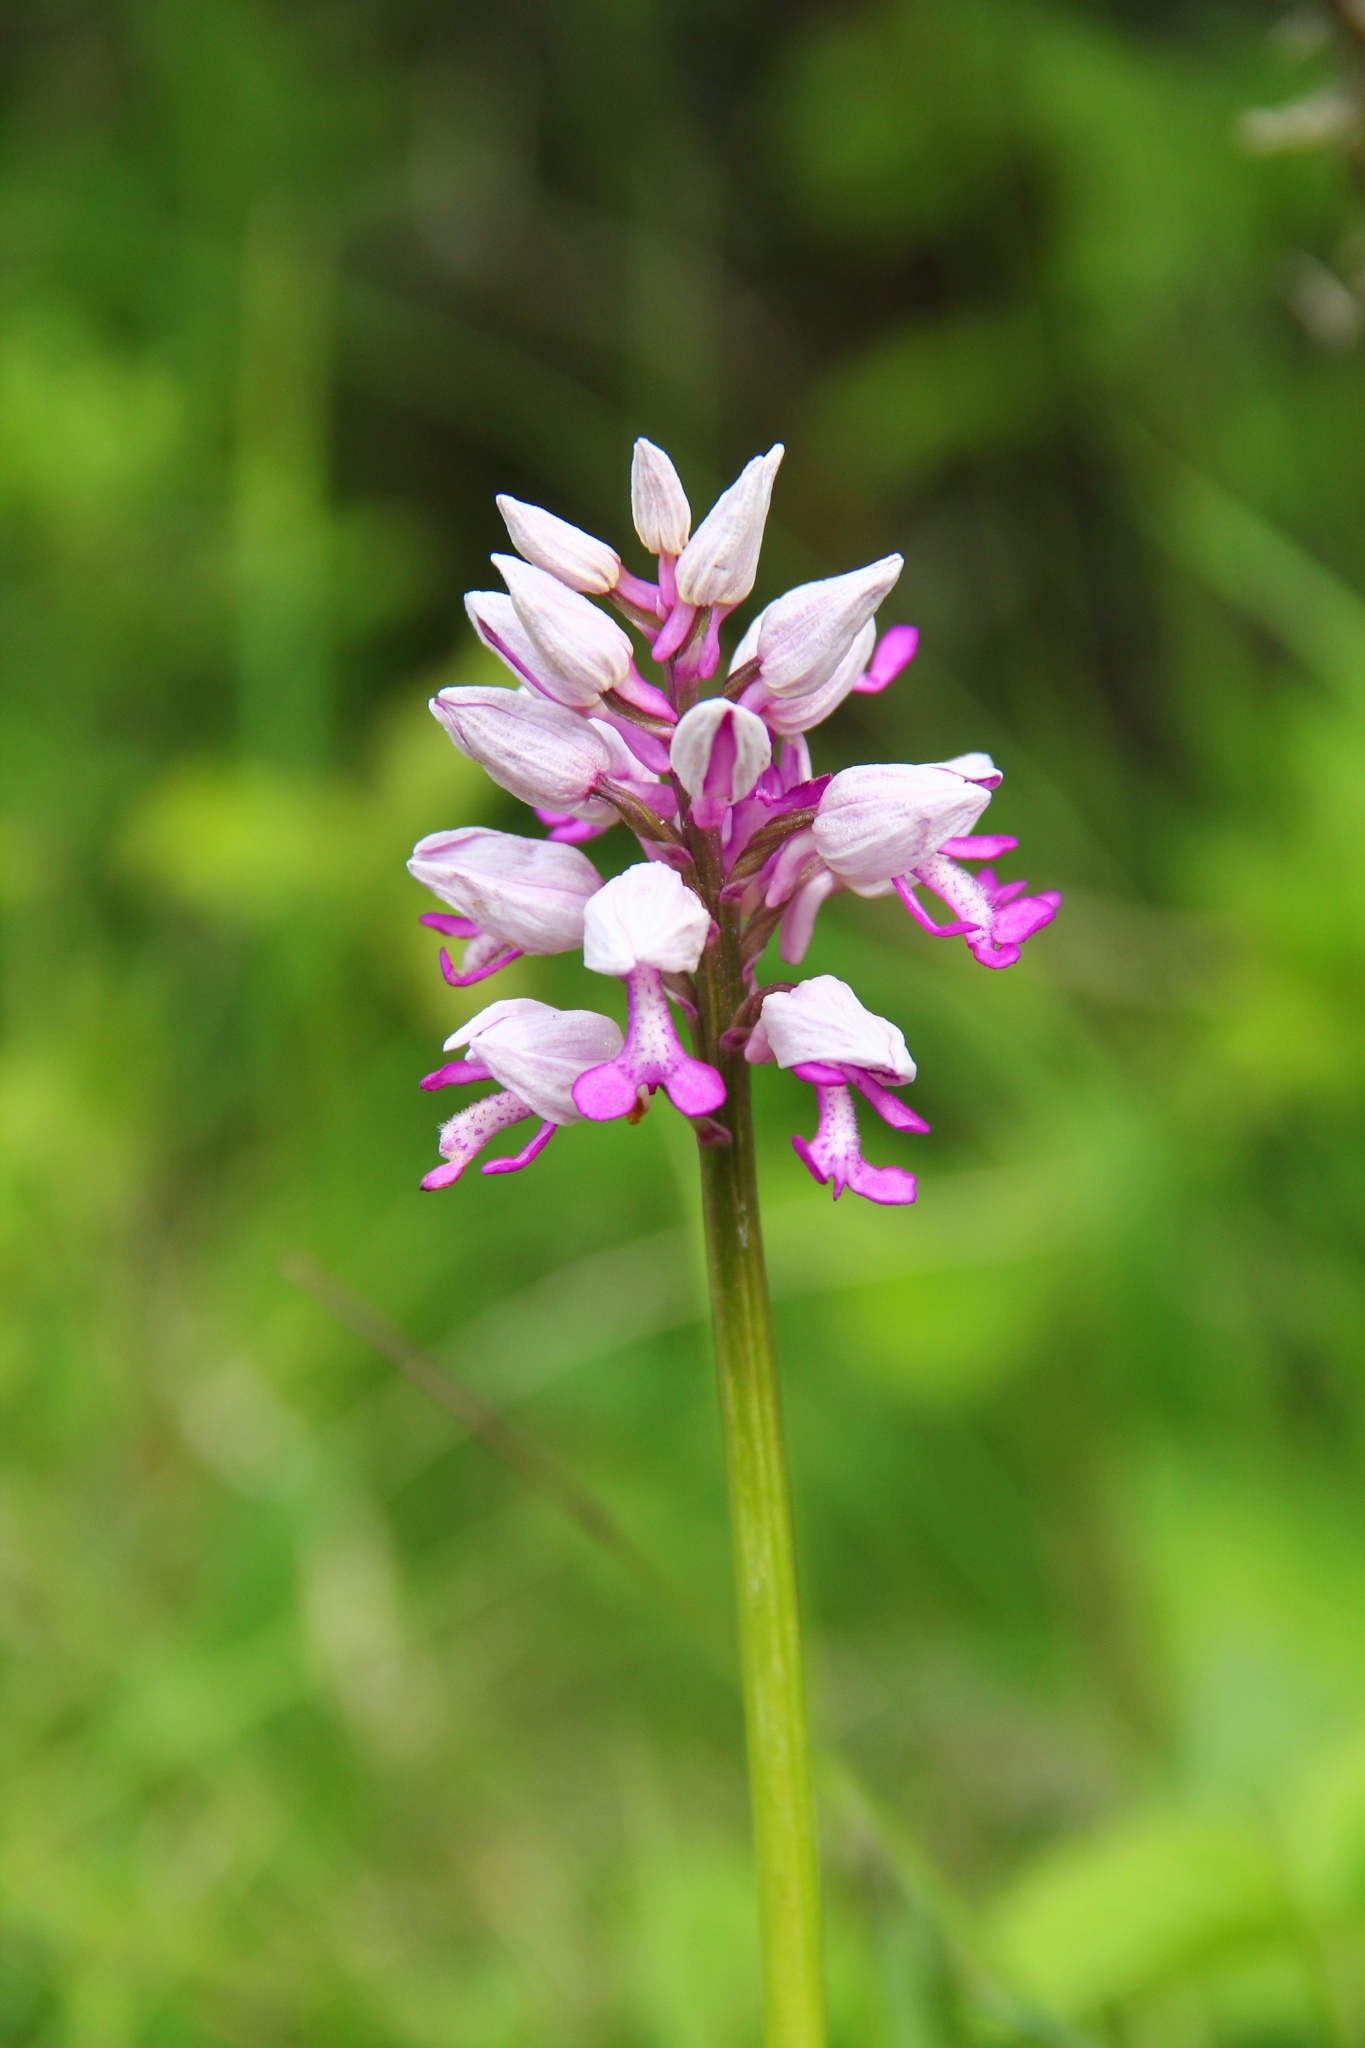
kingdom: Plantae
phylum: Tracheophyta
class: Liliopsida
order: Asparagales
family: Orchidaceae
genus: Orchis
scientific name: Orchis militaris
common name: Military orchid
